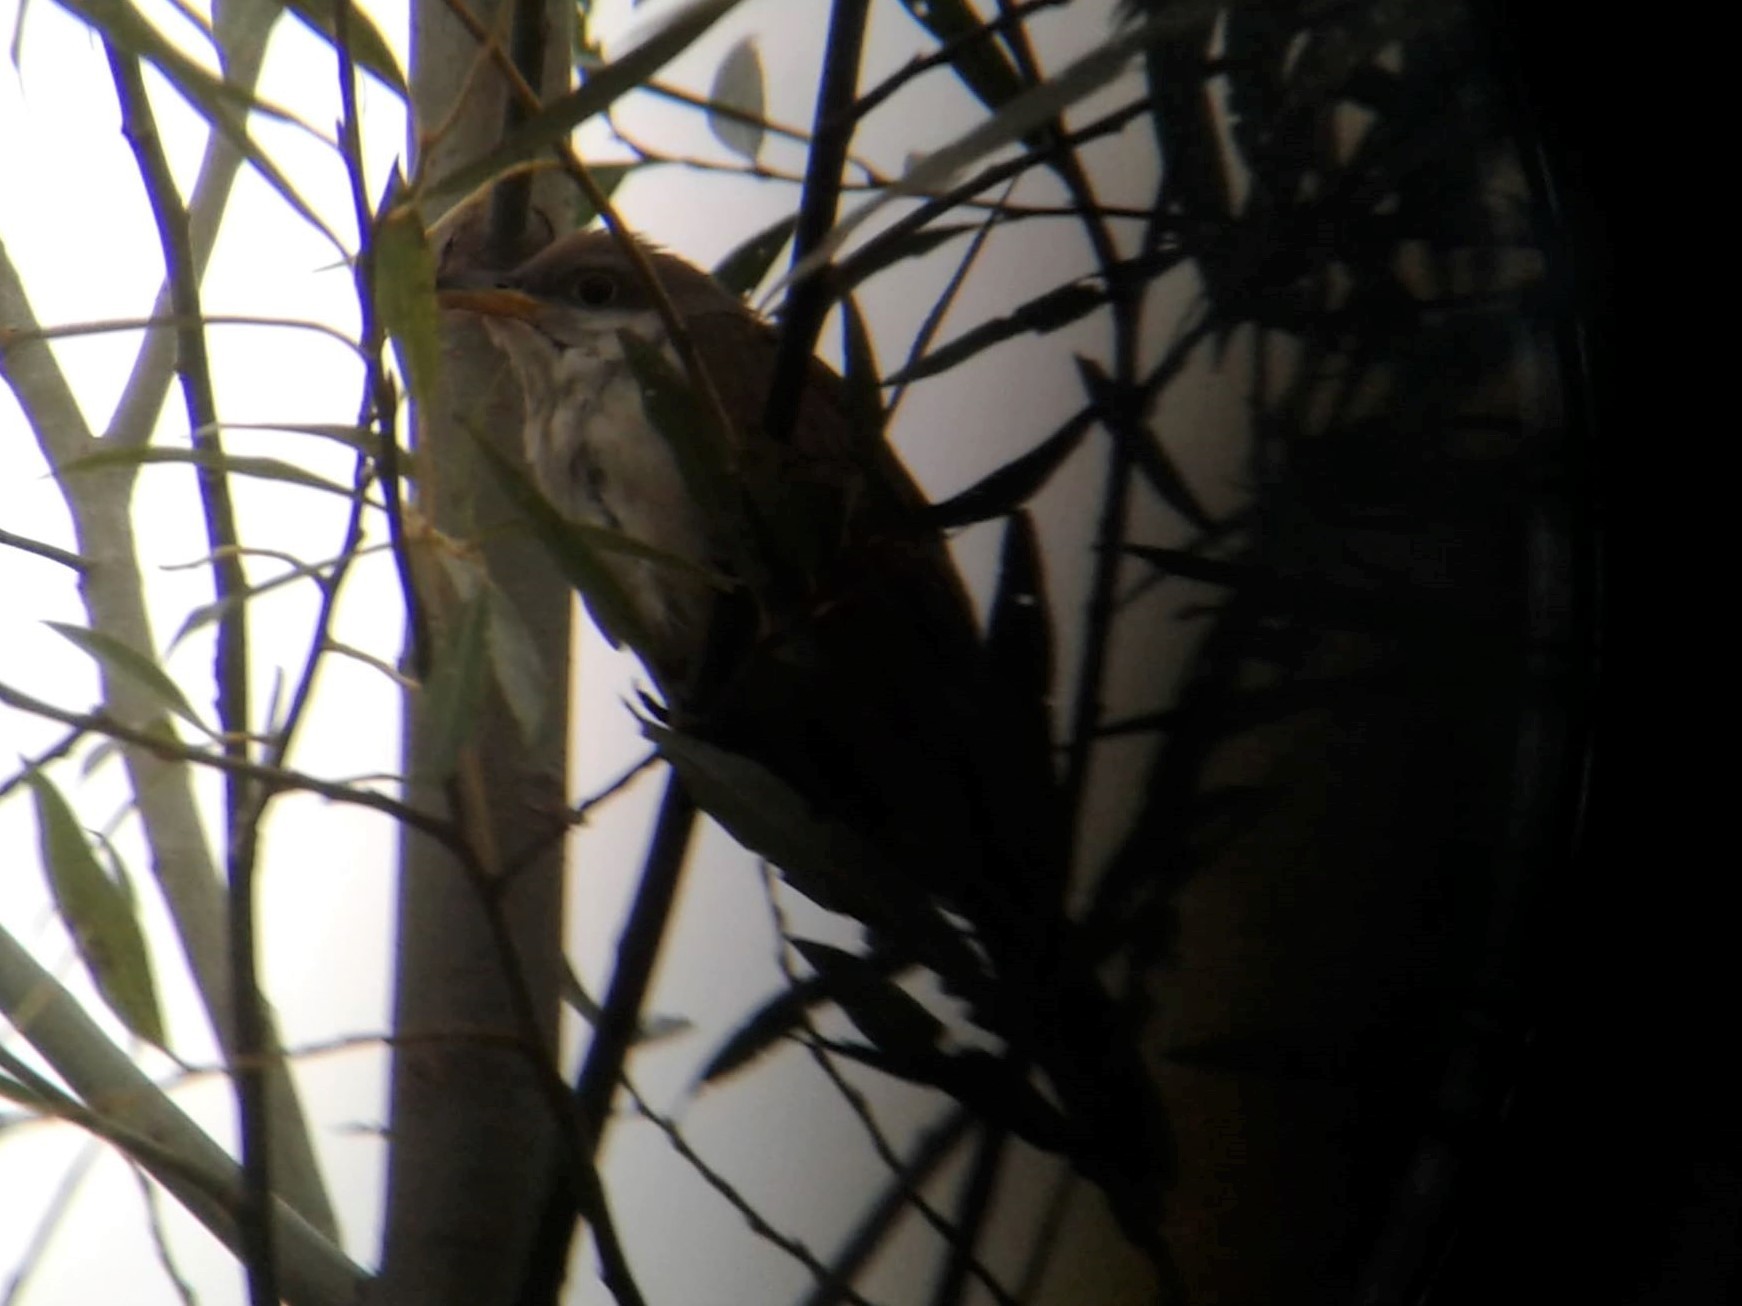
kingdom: Animalia
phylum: Chordata
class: Aves
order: Cuculiformes
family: Cuculidae
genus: Coccyzus
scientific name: Coccyzus americanus
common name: Yellow-billed cuckoo
